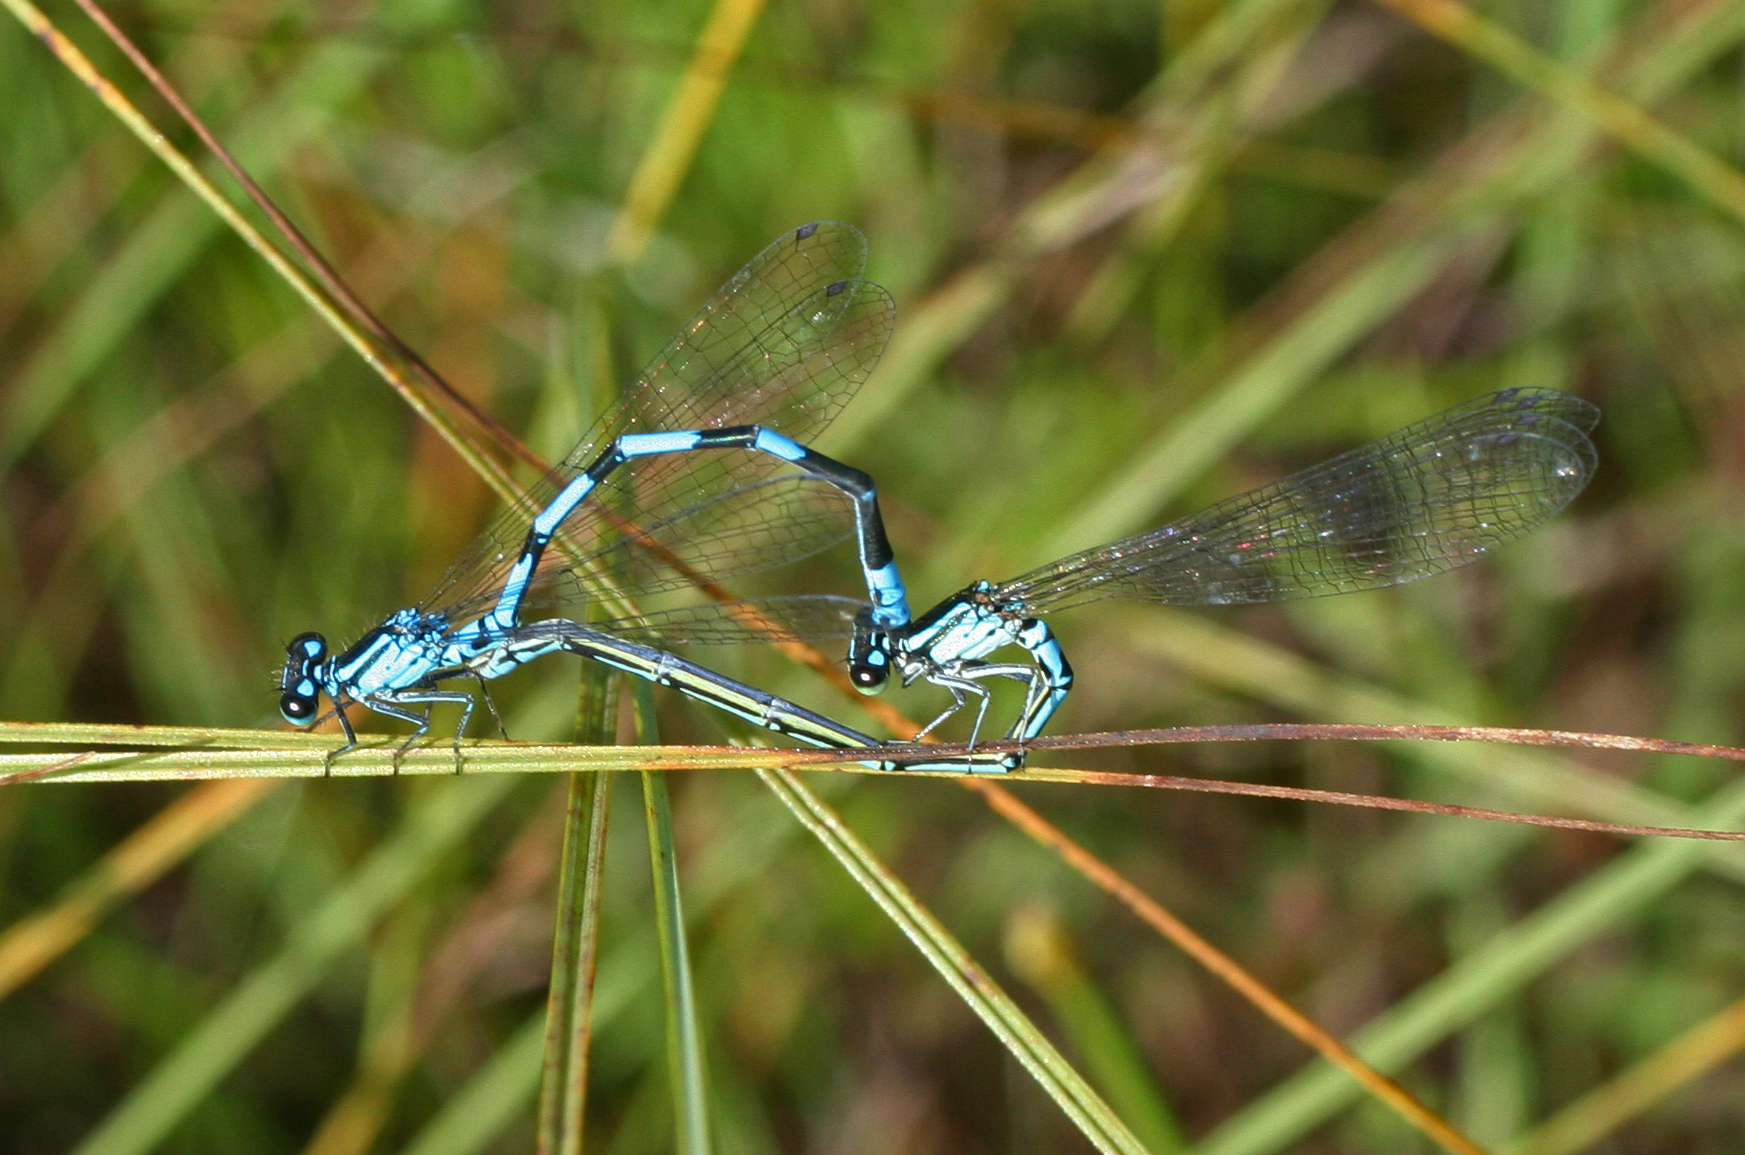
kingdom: Animalia
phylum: Arthropoda
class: Insecta
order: Odonata
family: Coenagrionidae
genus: Coenagrion
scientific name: Coenagrion johanssoni
